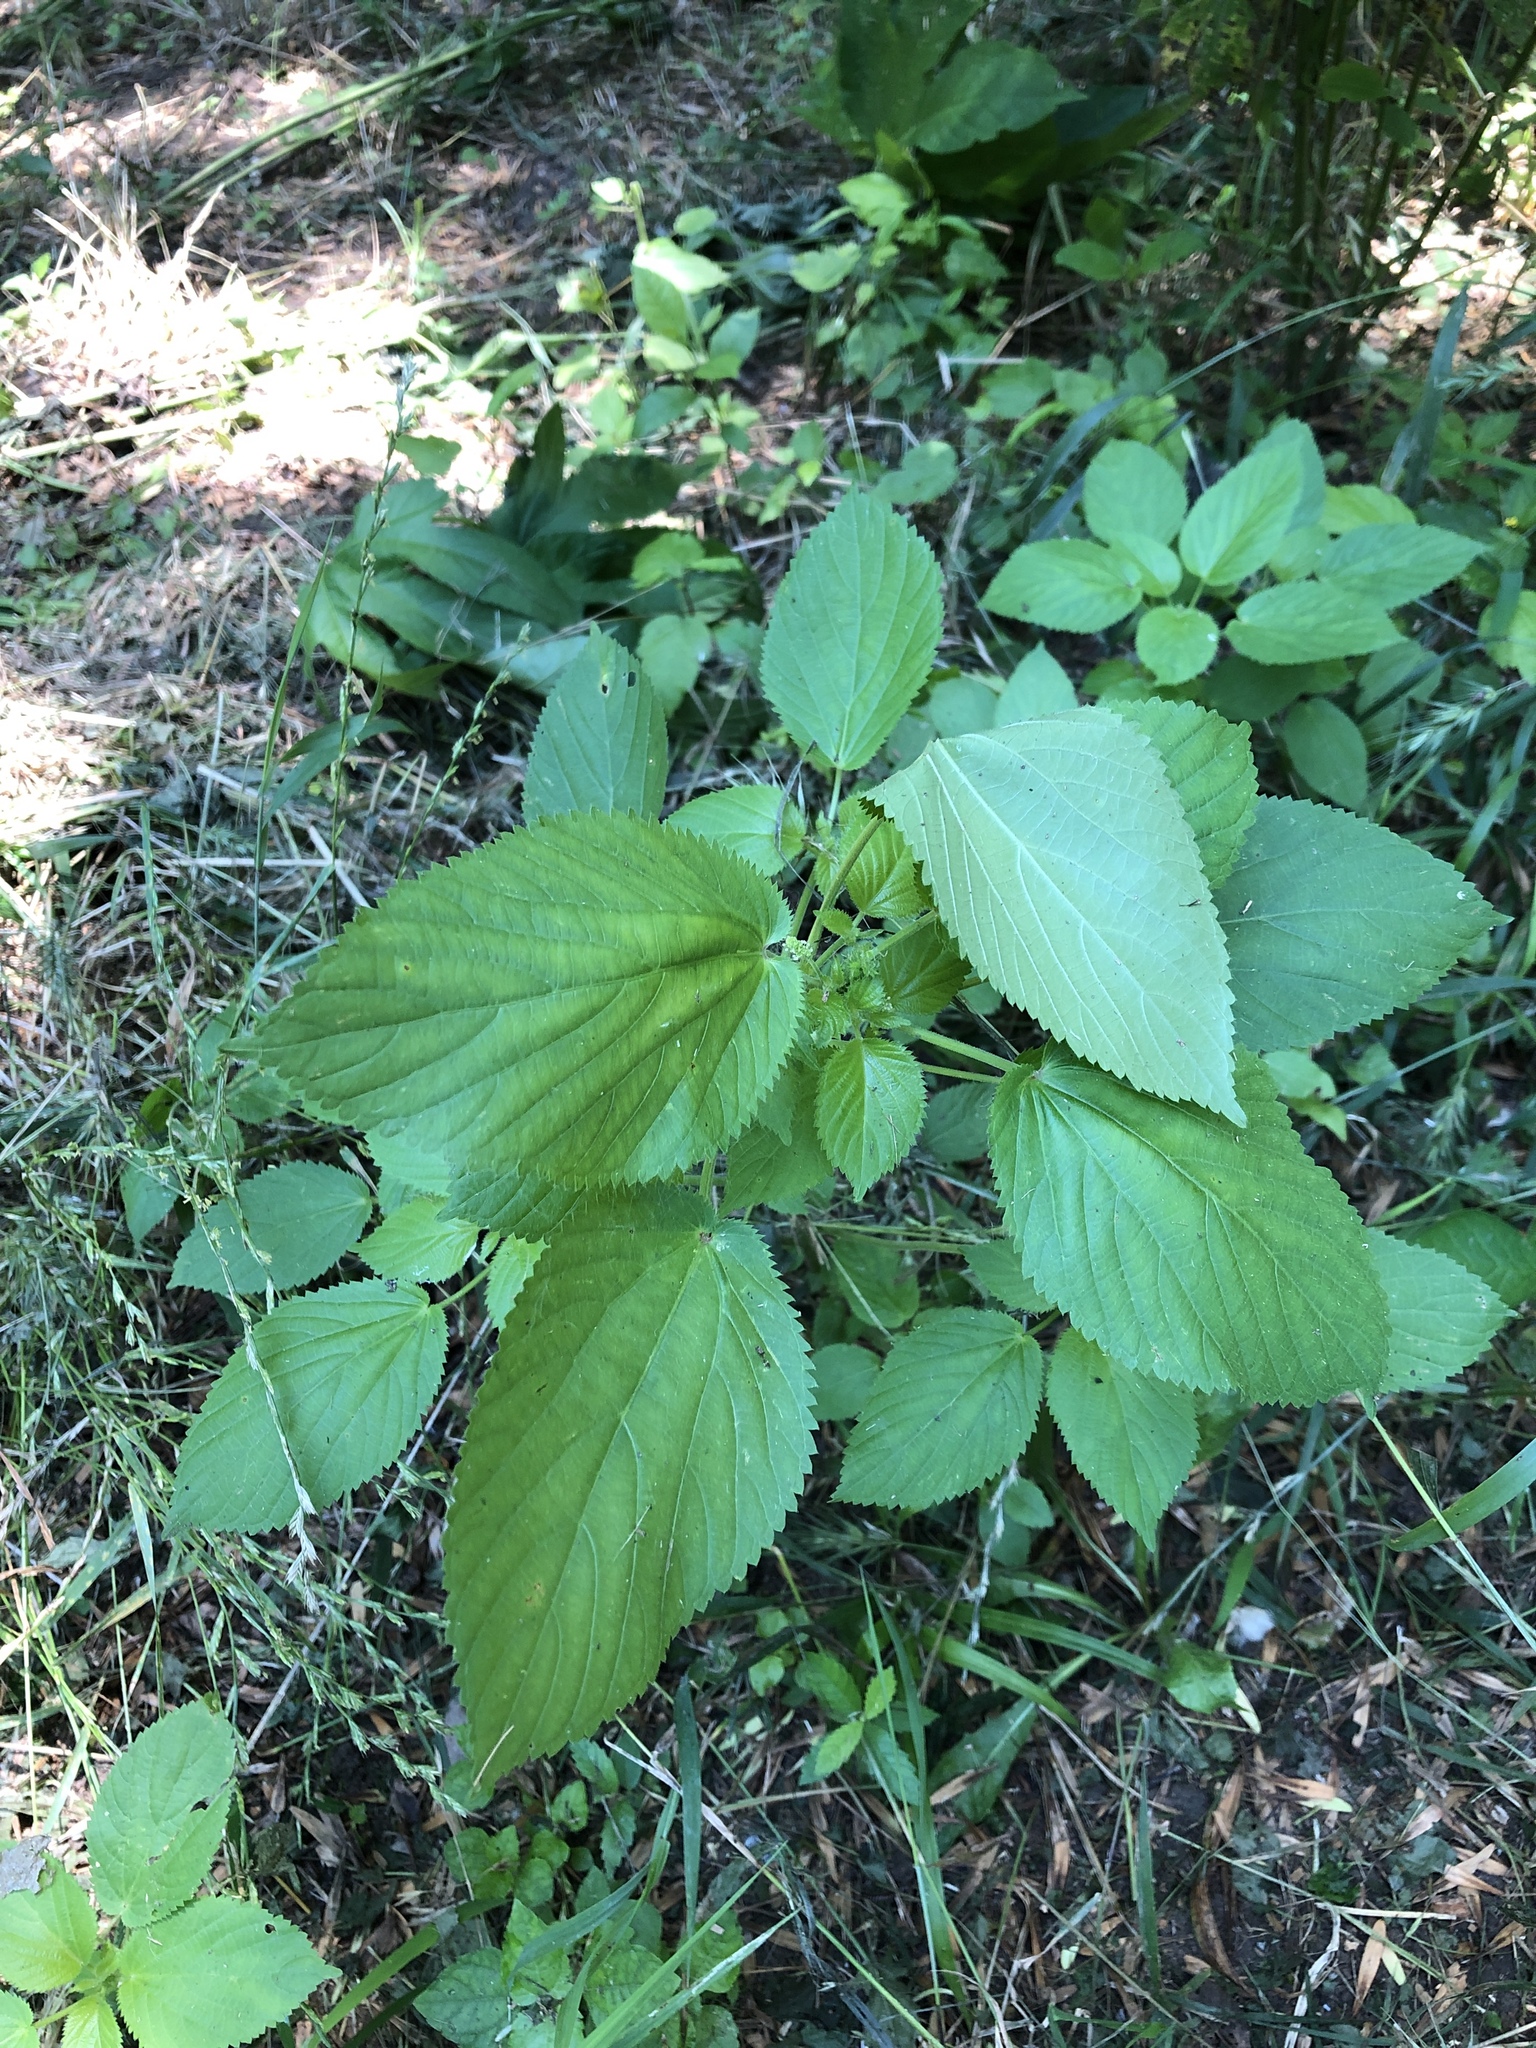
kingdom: Plantae
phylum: Tracheophyta
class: Magnoliopsida
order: Malpighiales
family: Euphorbiaceae
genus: Acalypha
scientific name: Acalypha ostryifolia
